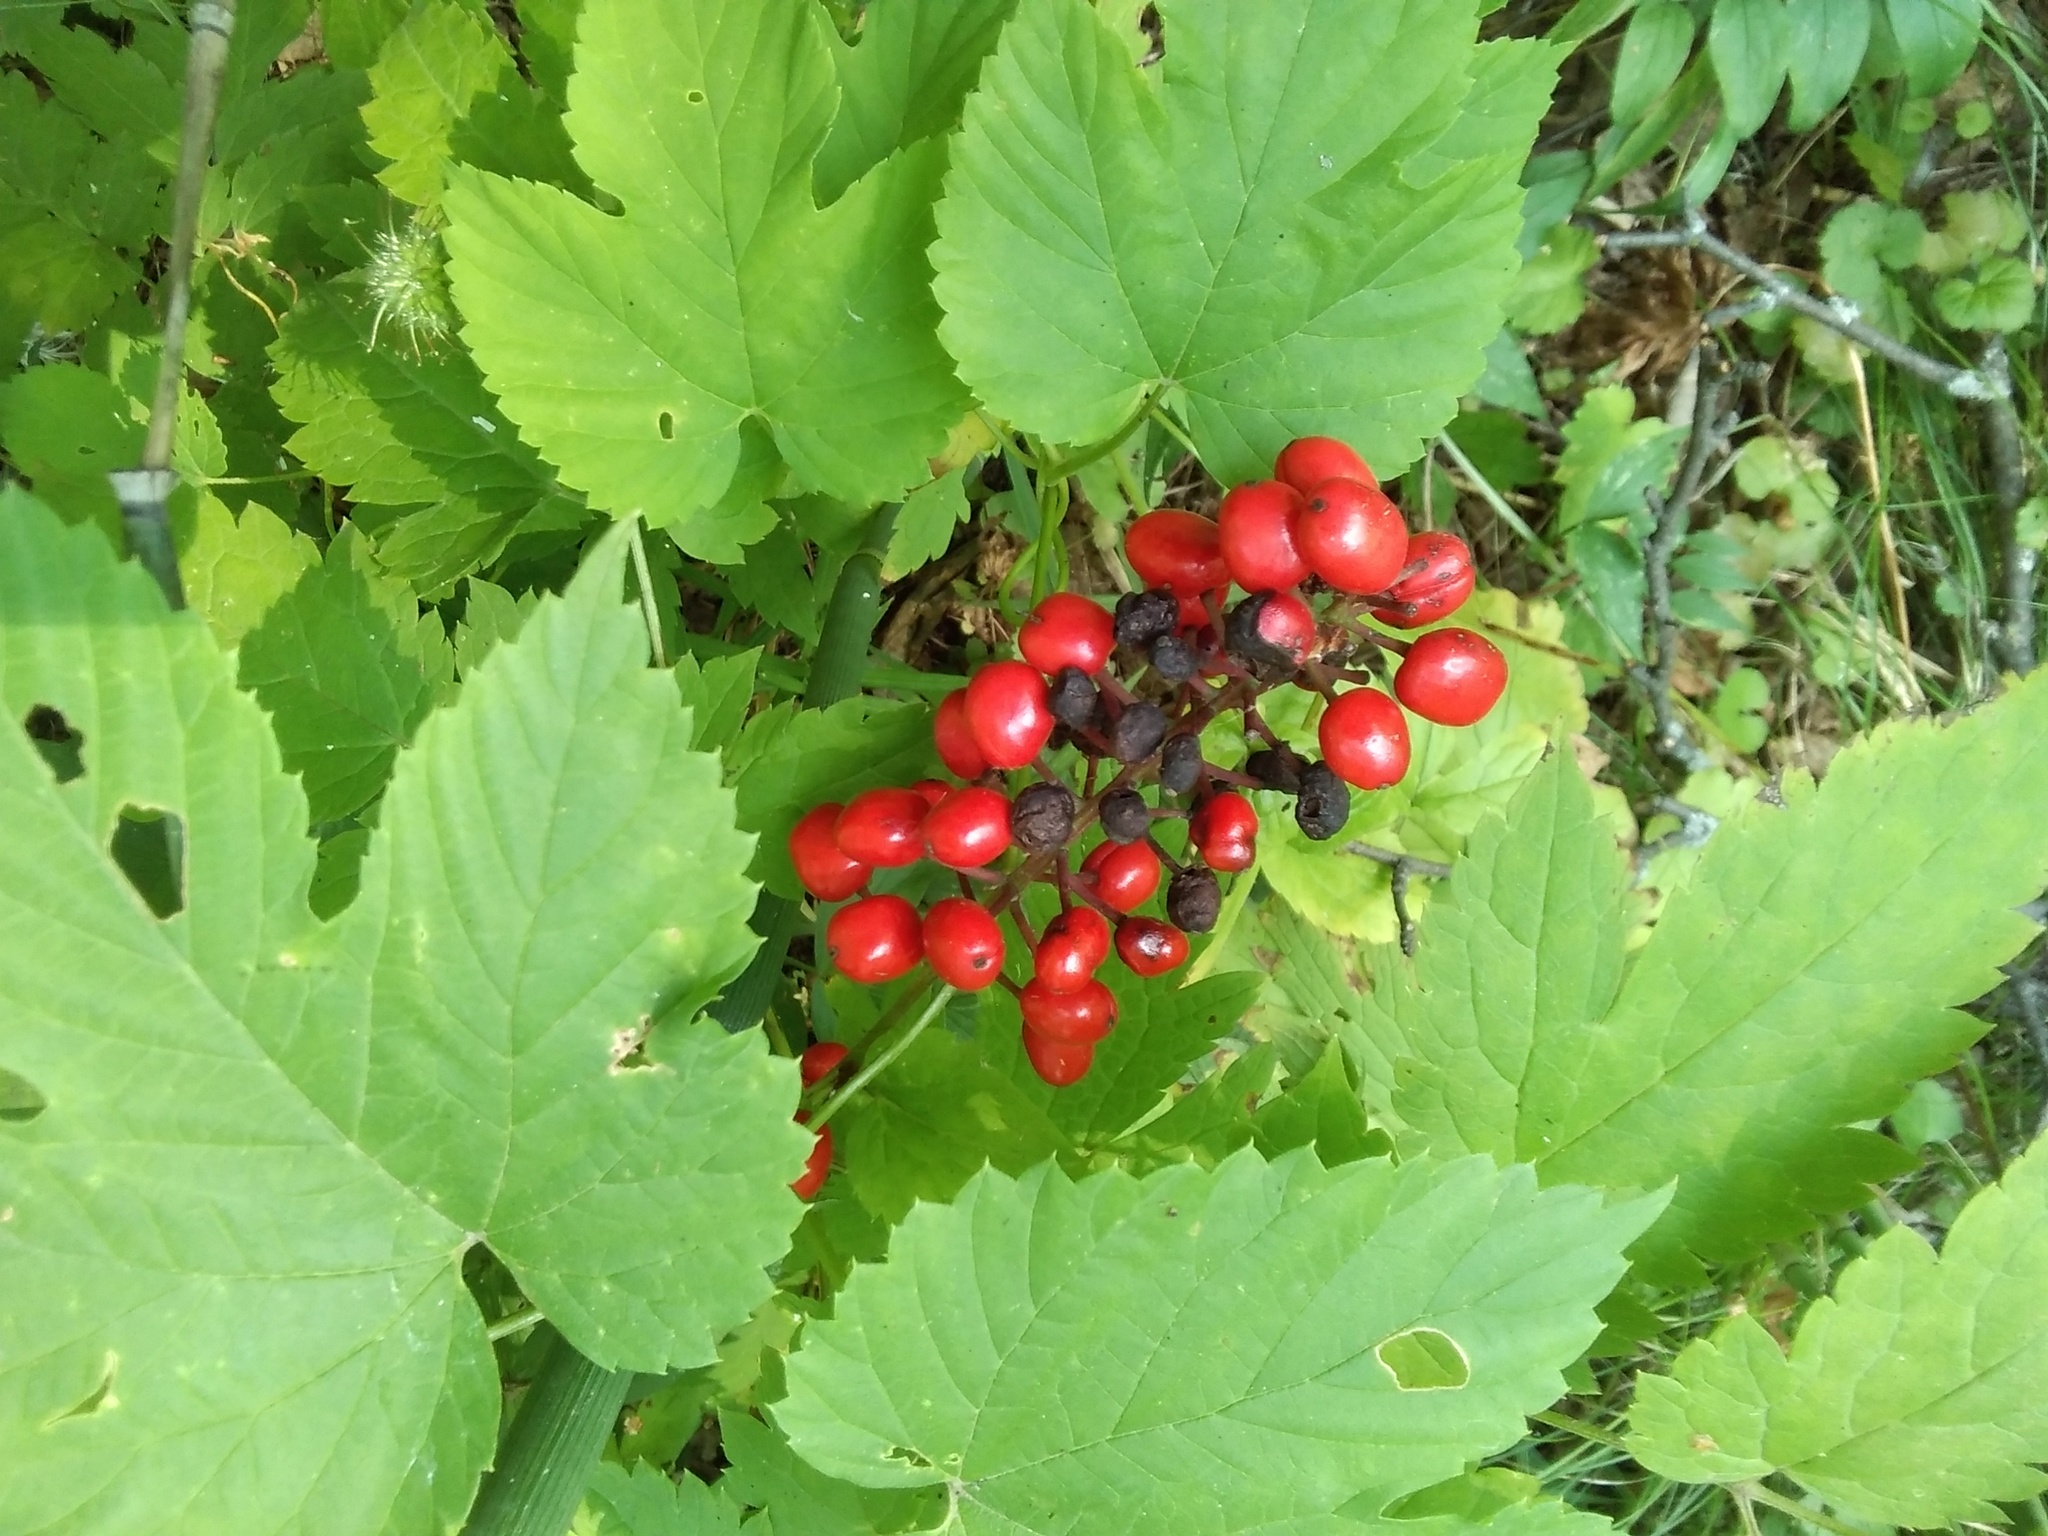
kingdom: Plantae
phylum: Tracheophyta
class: Magnoliopsida
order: Ranunculales
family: Ranunculaceae
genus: Actaea
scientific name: Actaea erythrocarpa
